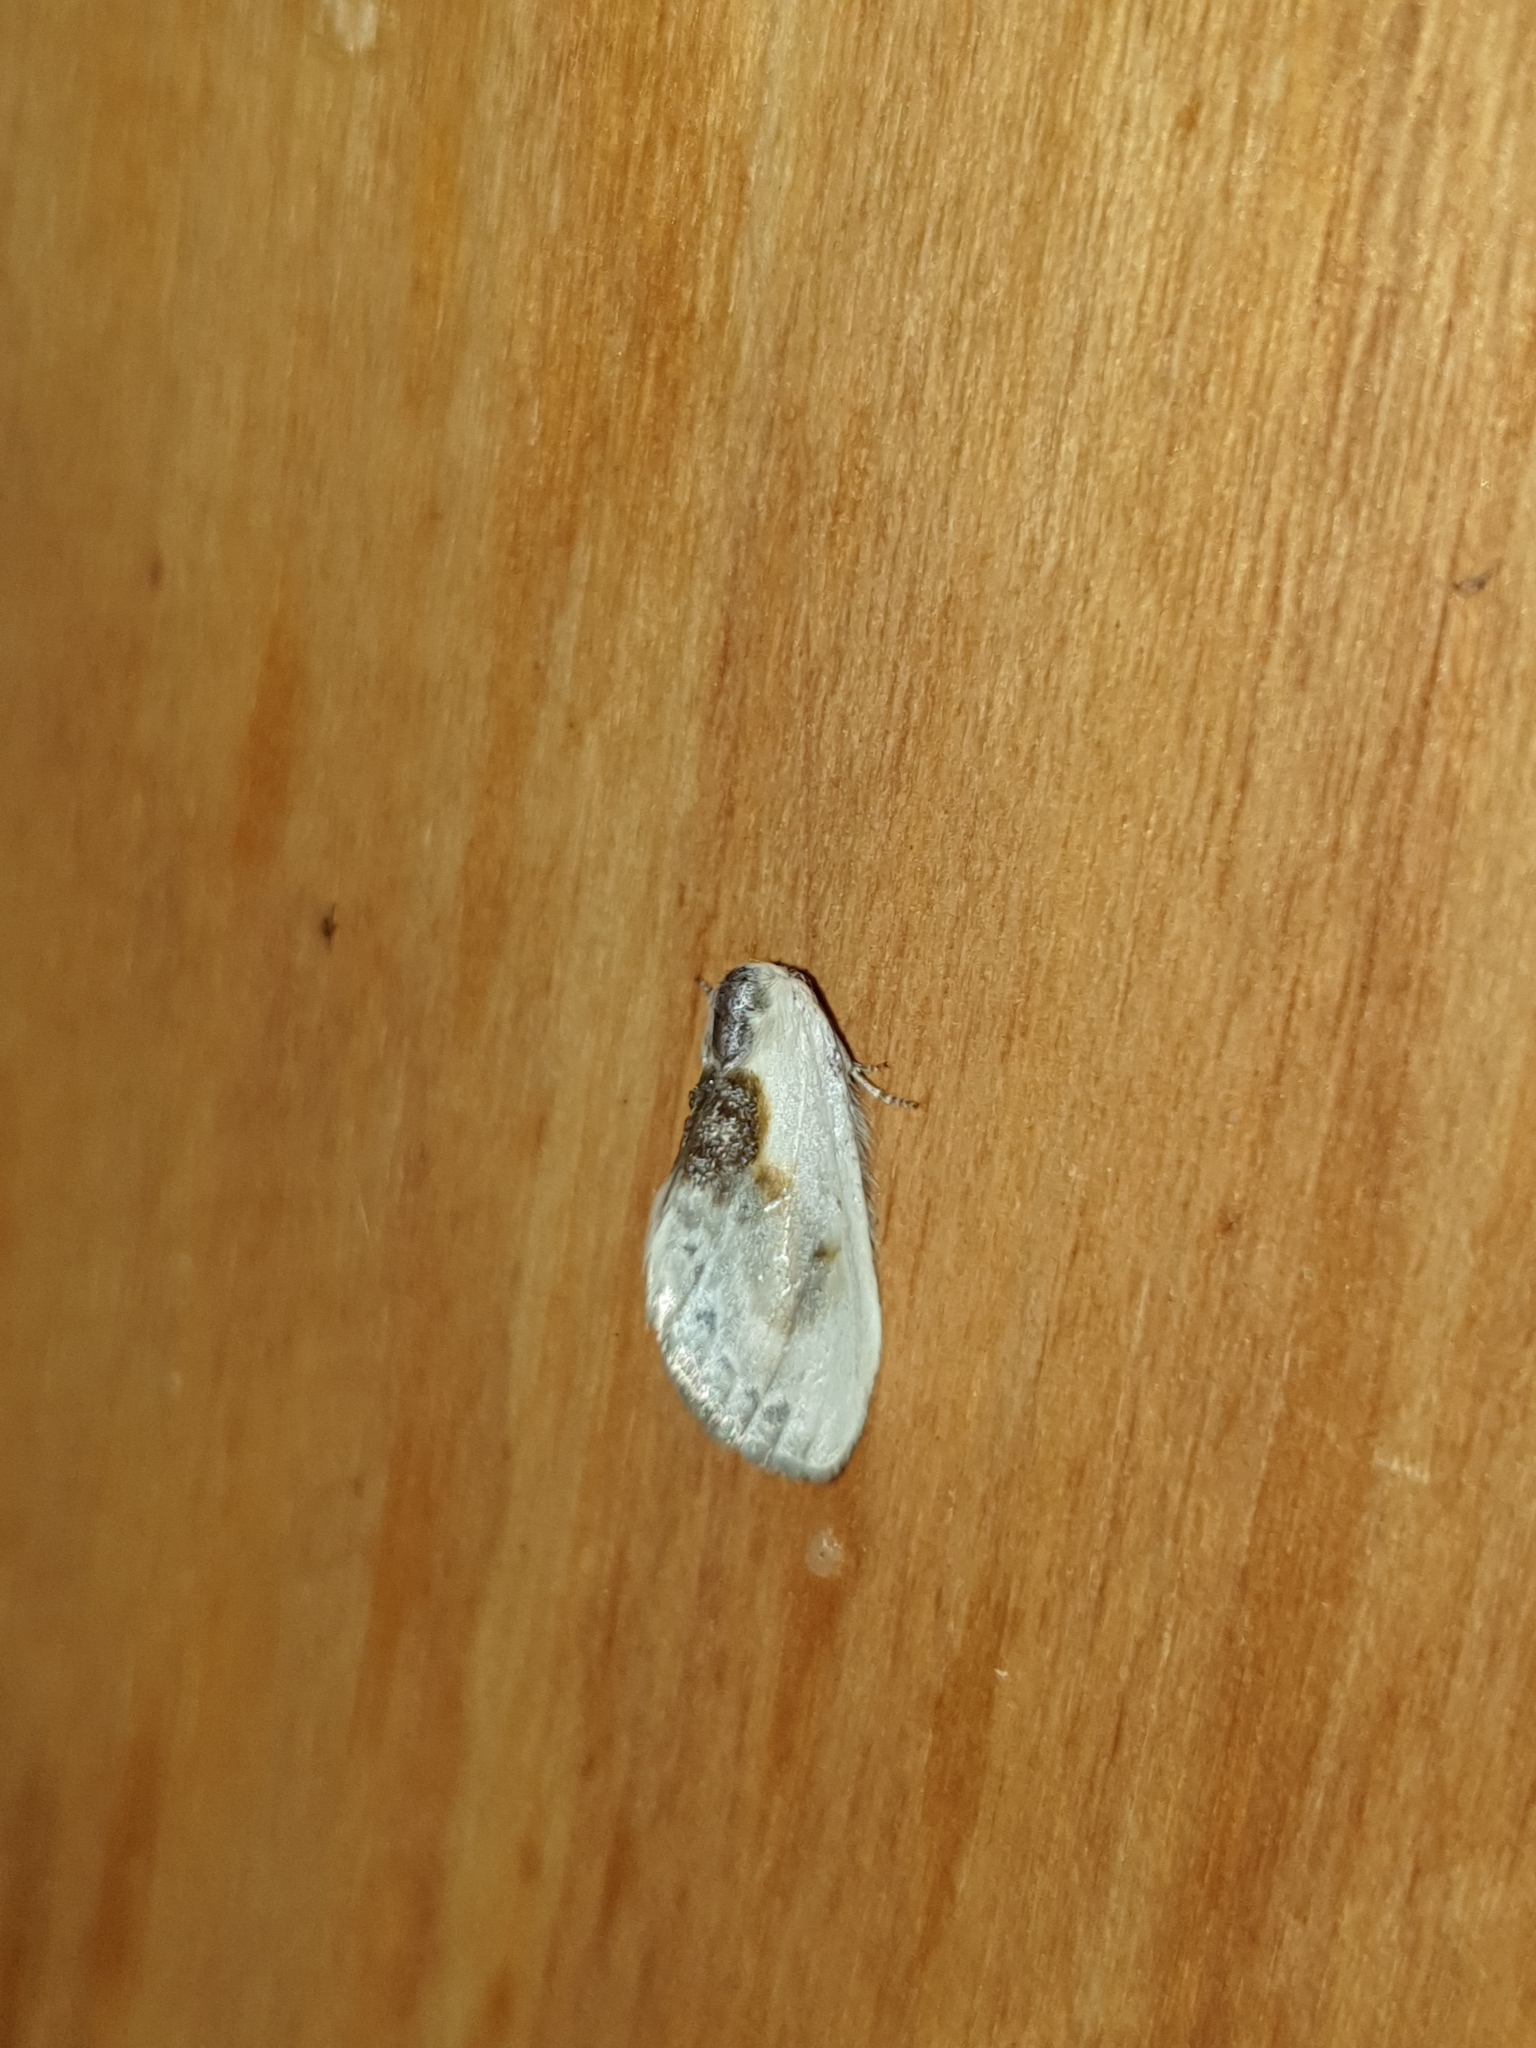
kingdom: Animalia
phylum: Arthropoda
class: Insecta
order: Lepidoptera
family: Drepanidae
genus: Cilix
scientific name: Cilix glaucata
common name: Chinese character
